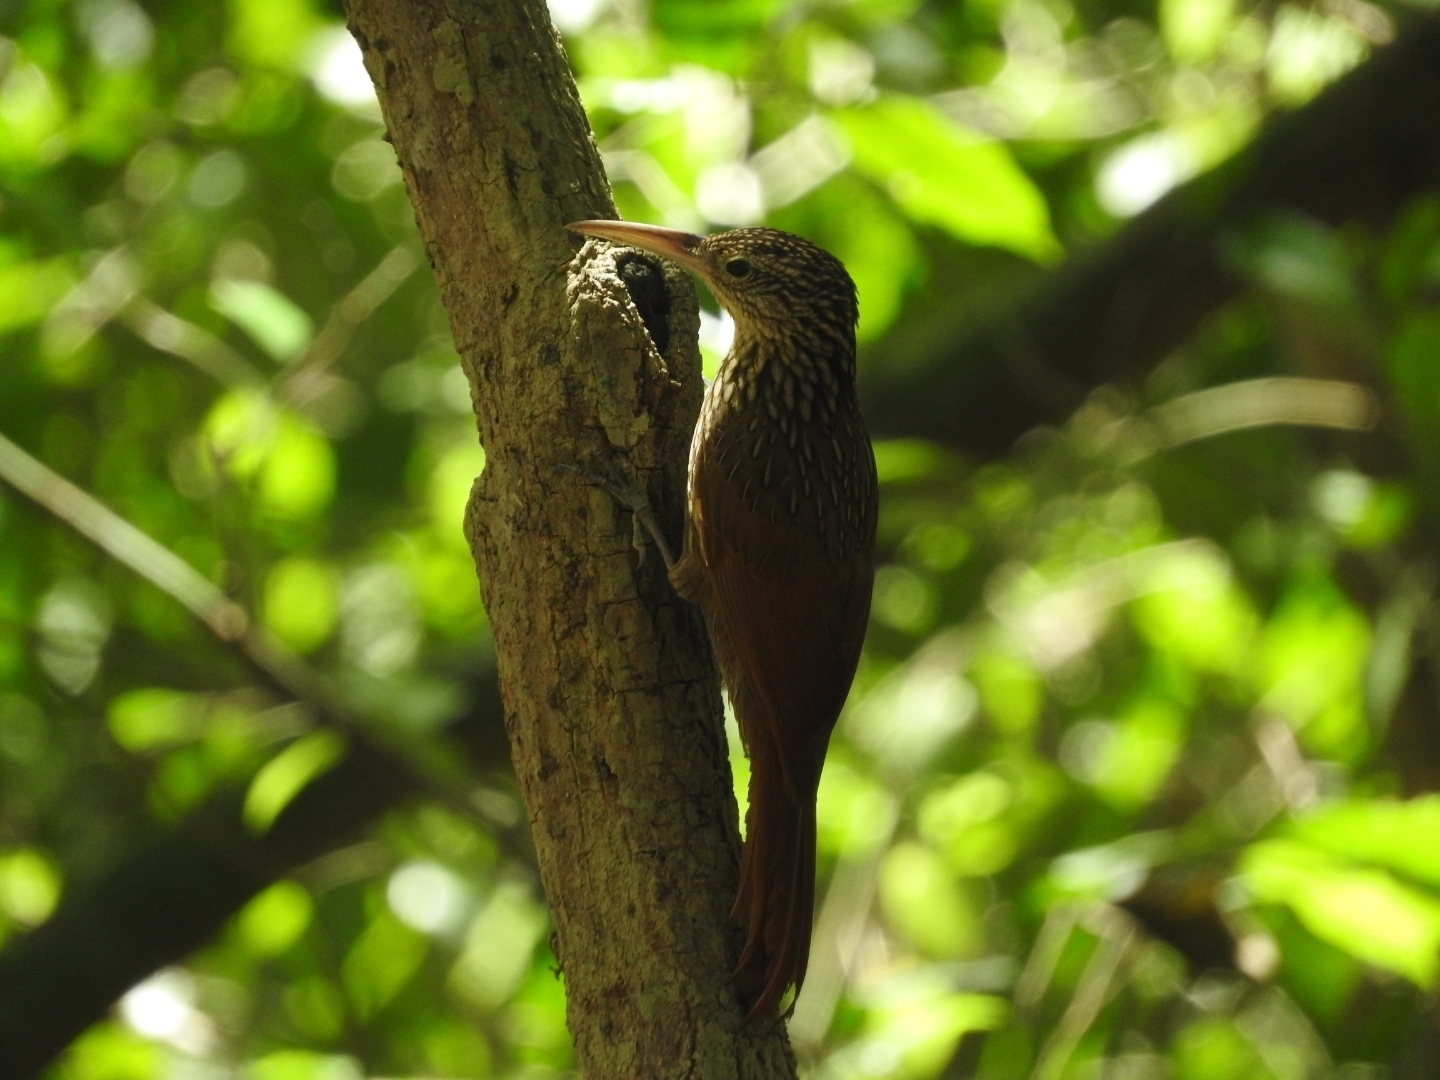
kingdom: Animalia
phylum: Chordata
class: Aves
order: Passeriformes
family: Furnariidae
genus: Xiphorhynchus
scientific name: Xiphorhynchus flavigaster
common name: Ivory-billed woodcreeper
